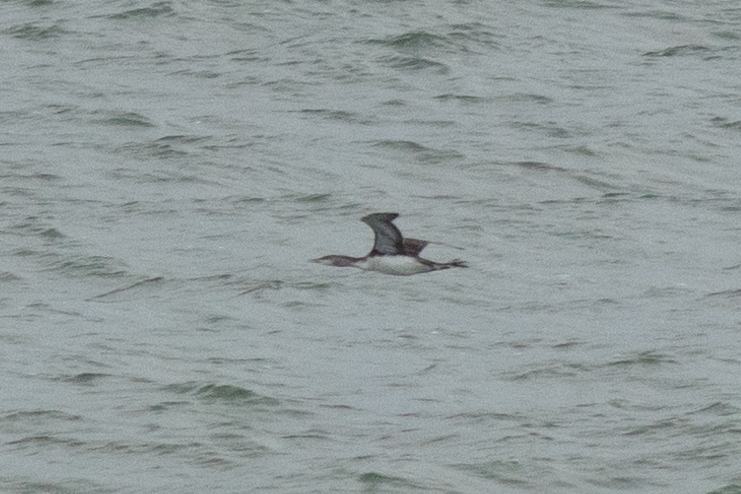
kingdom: Animalia
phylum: Chordata
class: Aves
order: Gaviiformes
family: Gaviidae
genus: Gavia
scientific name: Gavia stellata
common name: Red-throated loon
